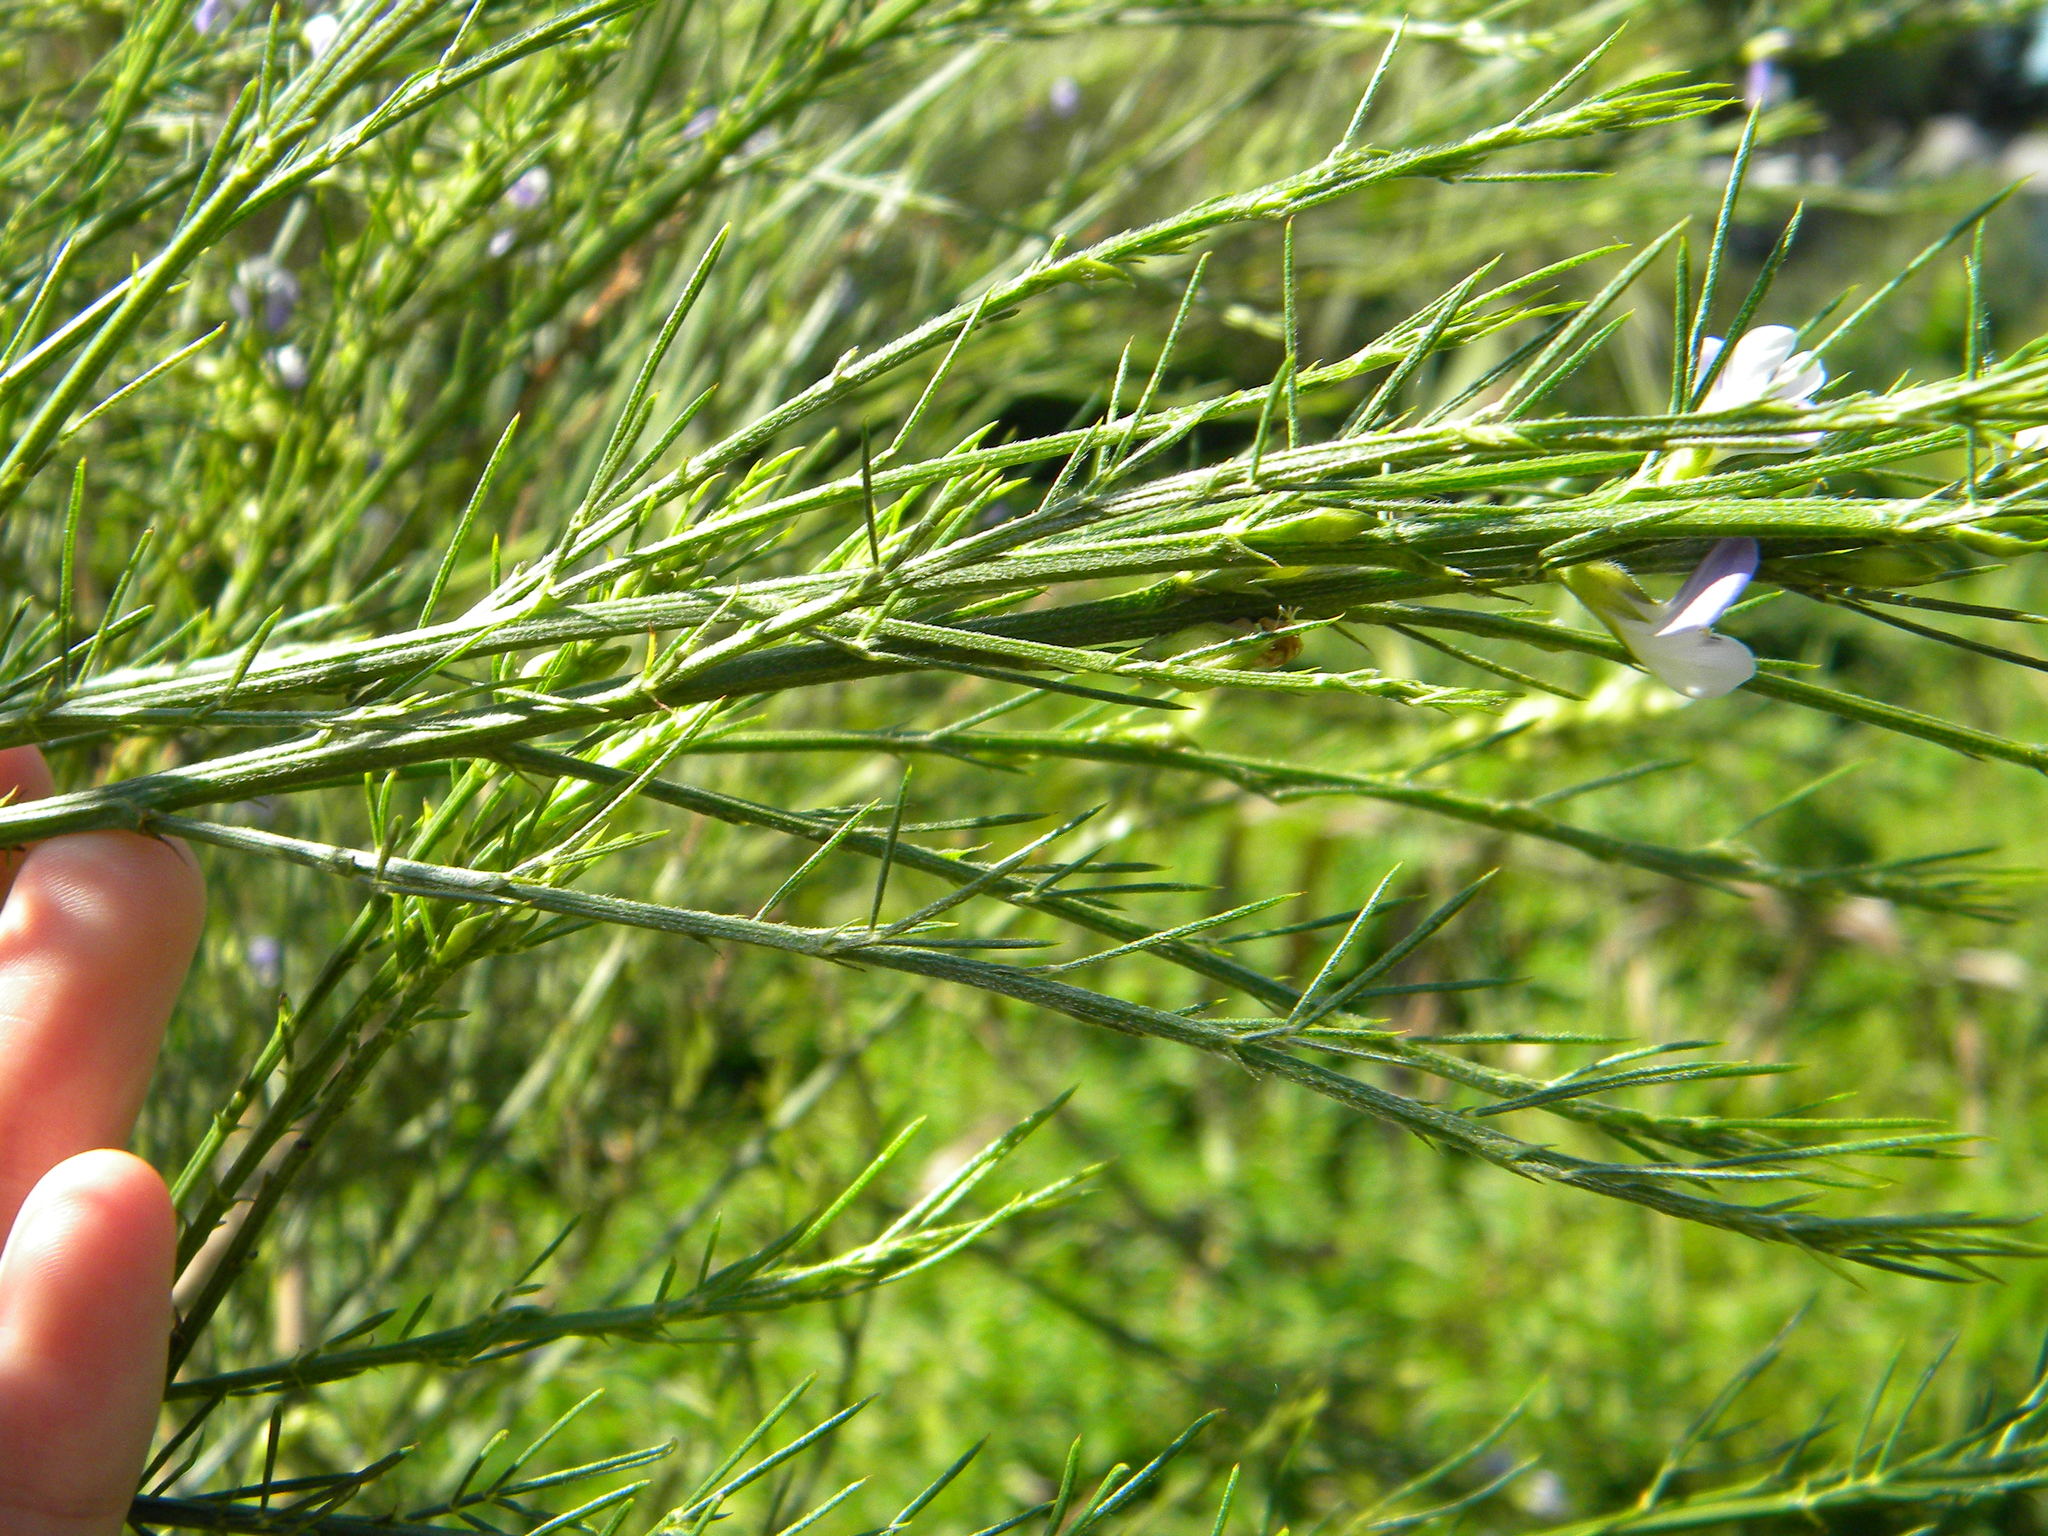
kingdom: Plantae
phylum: Tracheophyta
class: Magnoliopsida
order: Fabales
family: Fabaceae
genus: Psoralea
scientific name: Psoralea filifolia
